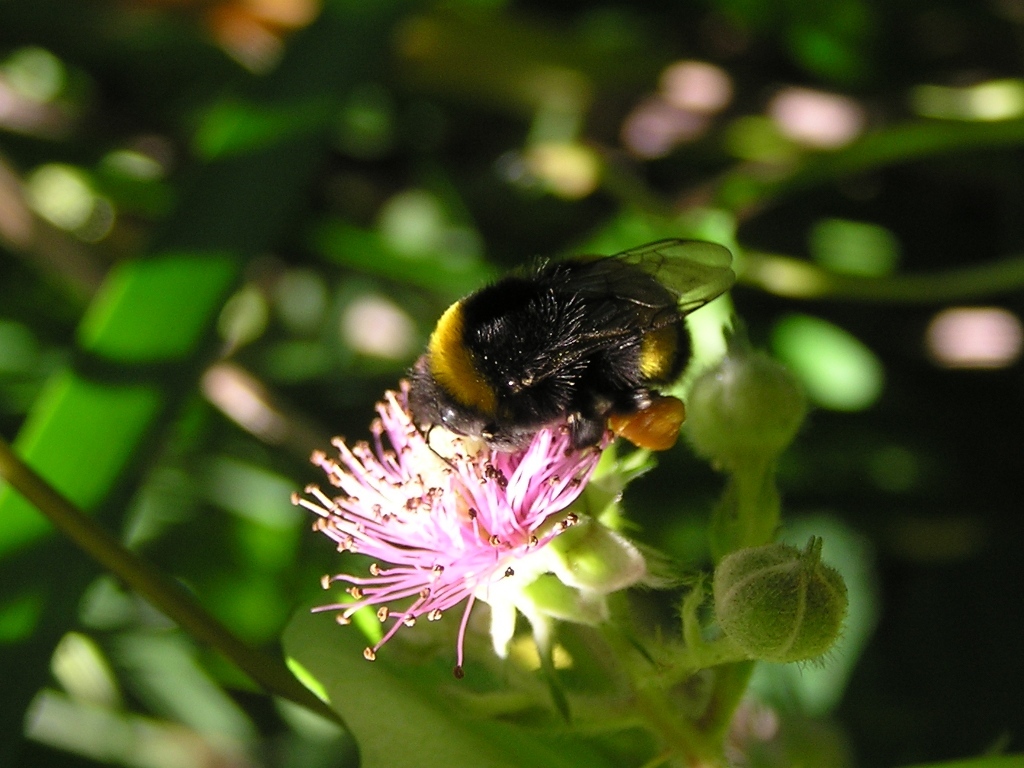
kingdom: Animalia
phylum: Arthropoda
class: Insecta
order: Hymenoptera
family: Apidae
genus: Bombus
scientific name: Bombus terrestris
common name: Buff-tailed bumblebee
